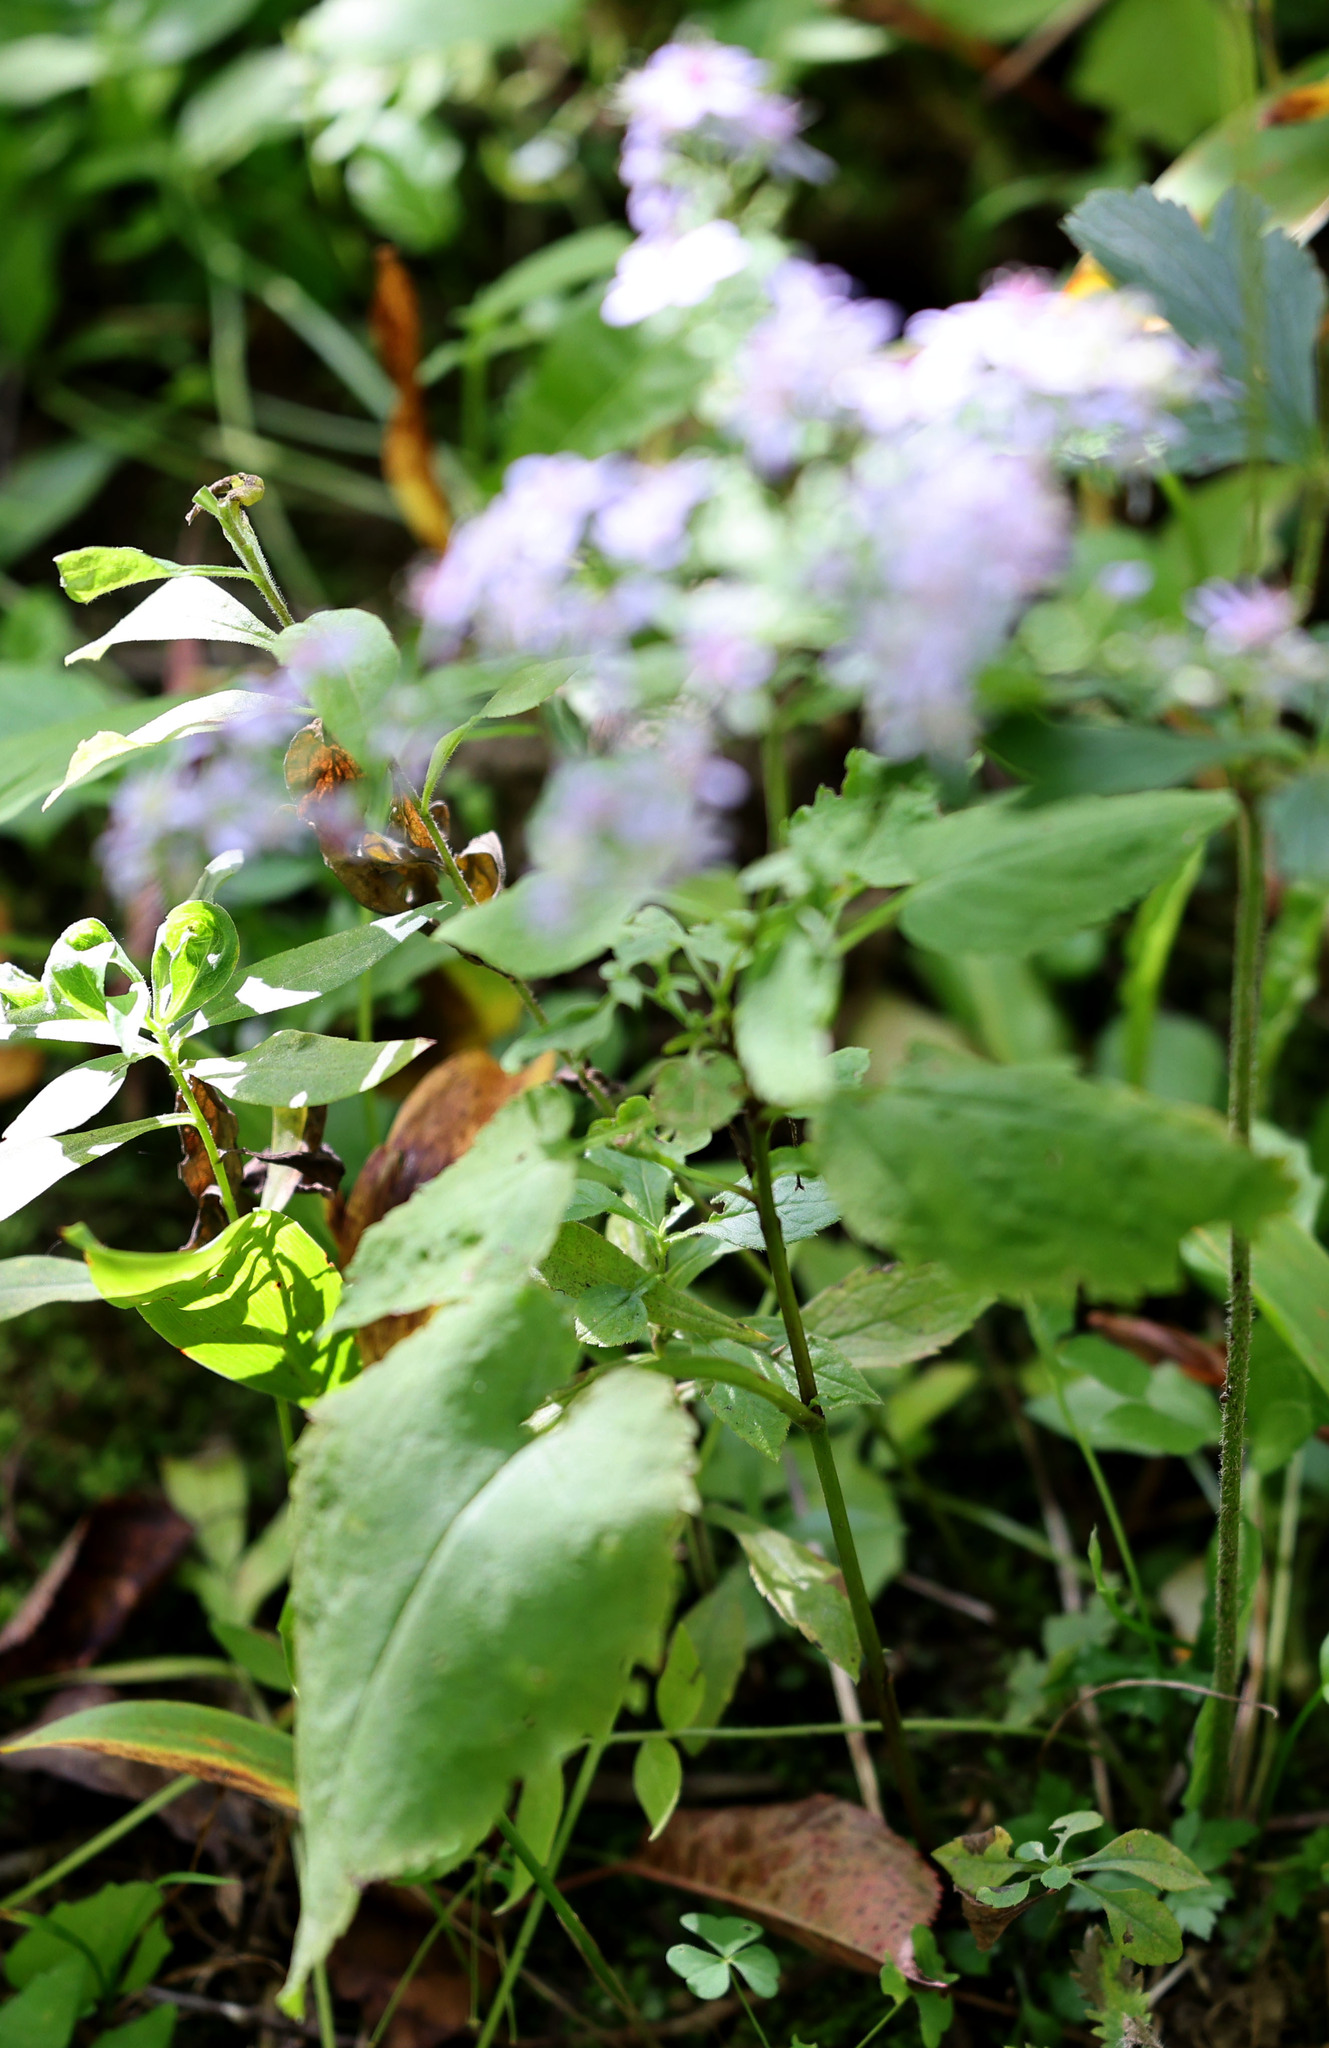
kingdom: Plantae
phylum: Tracheophyta
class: Magnoliopsida
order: Asterales
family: Asteraceae
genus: Symphyotrichum
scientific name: Symphyotrichum cordifolium
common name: Beeweed
